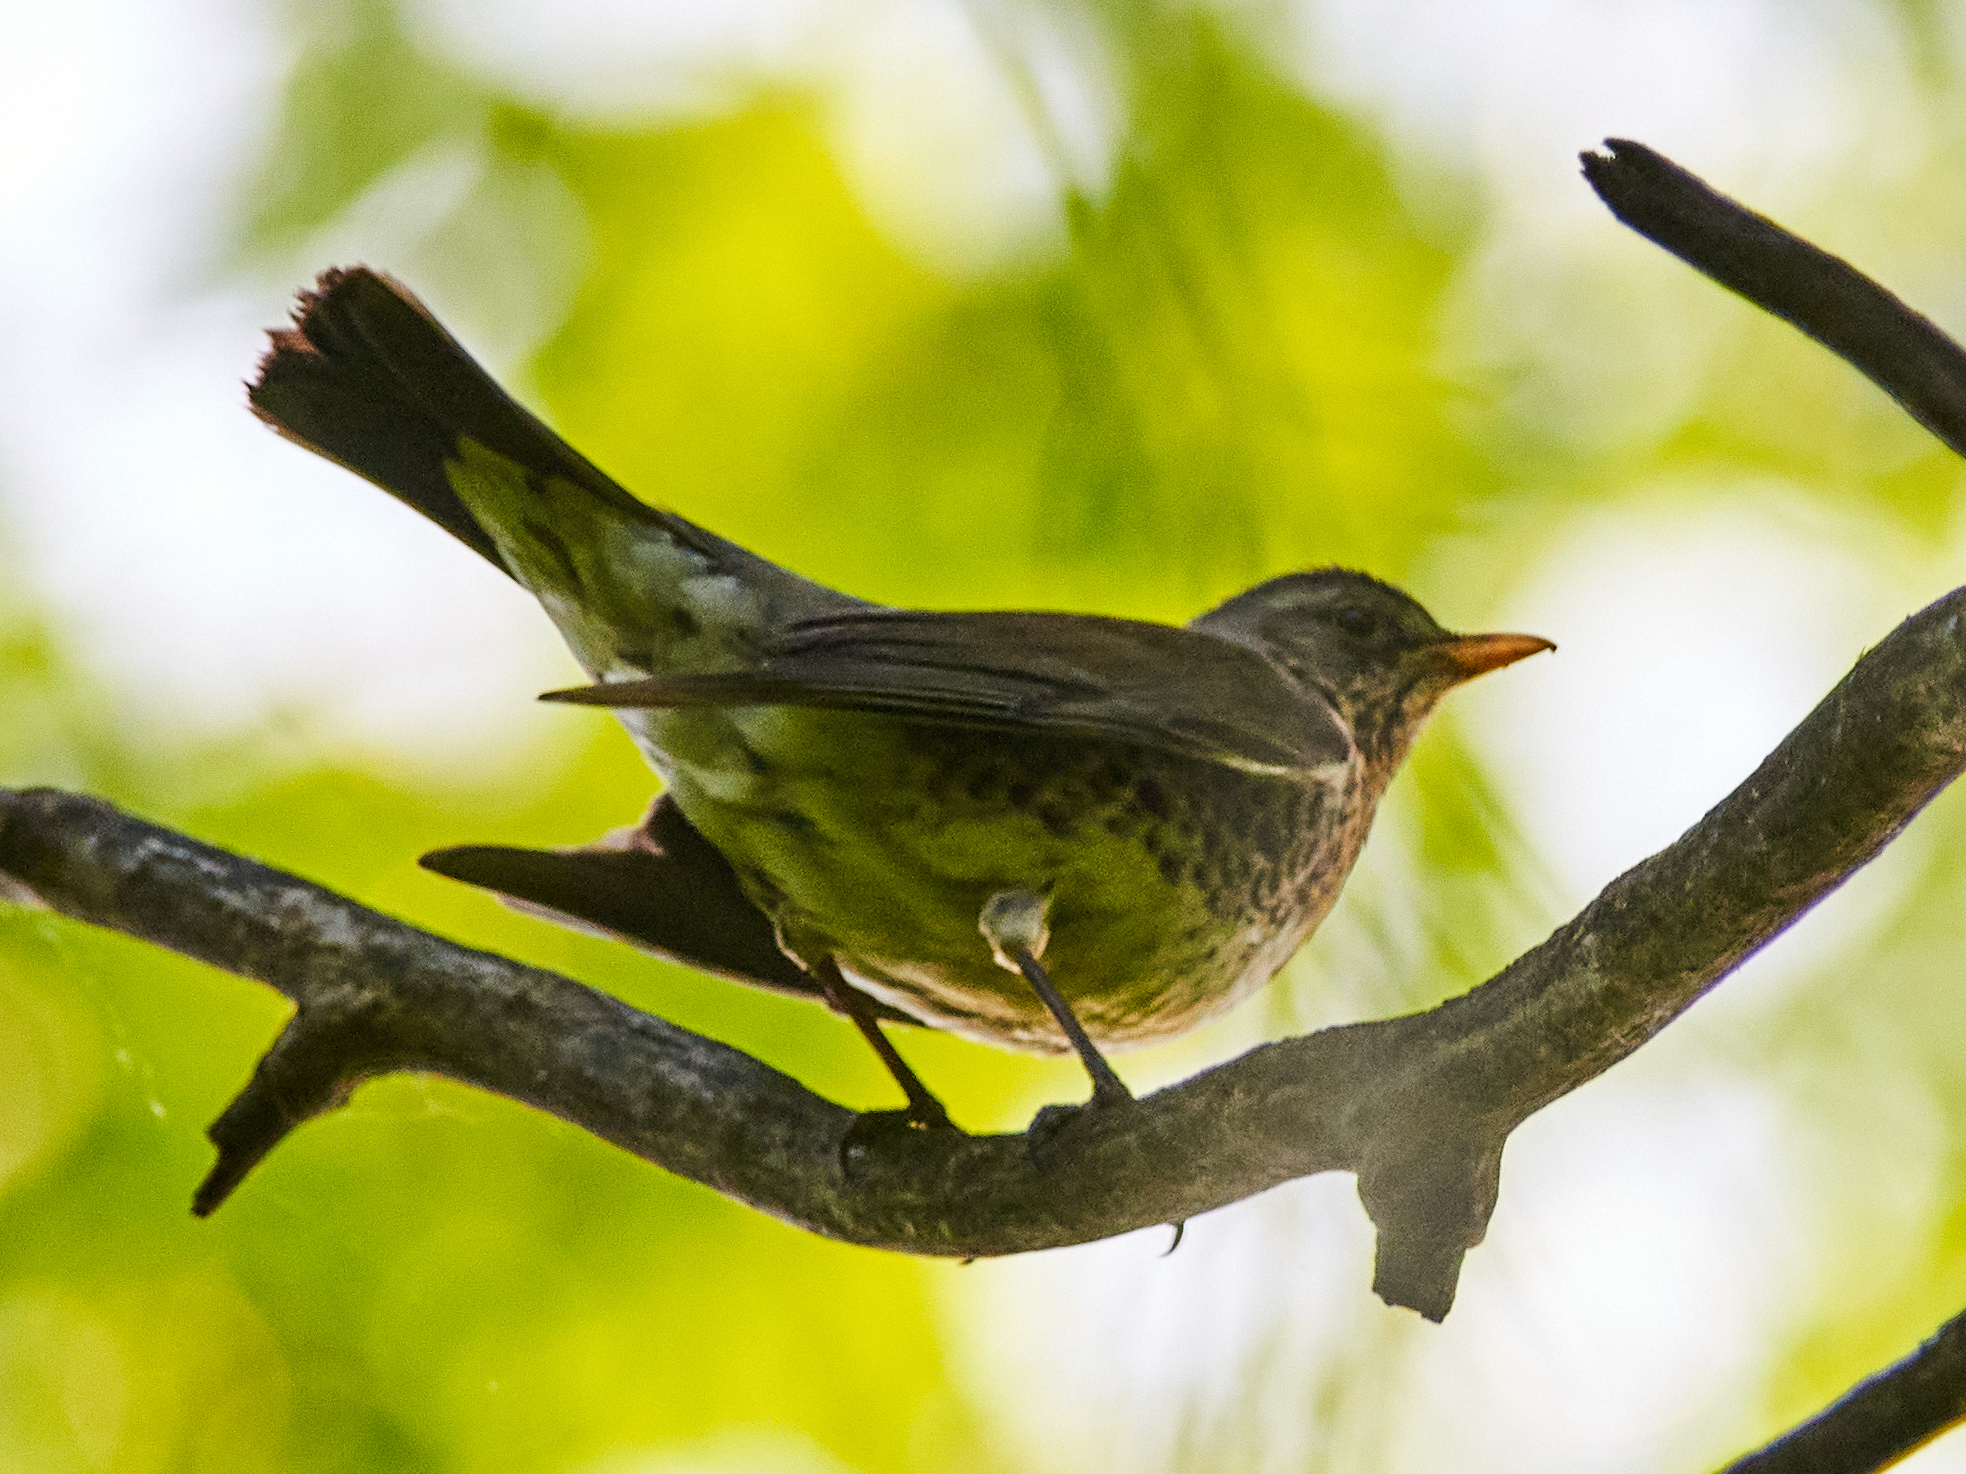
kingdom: Animalia
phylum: Chordata
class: Aves
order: Passeriformes
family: Turdidae
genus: Turdus
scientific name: Turdus pilaris
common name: Fieldfare
